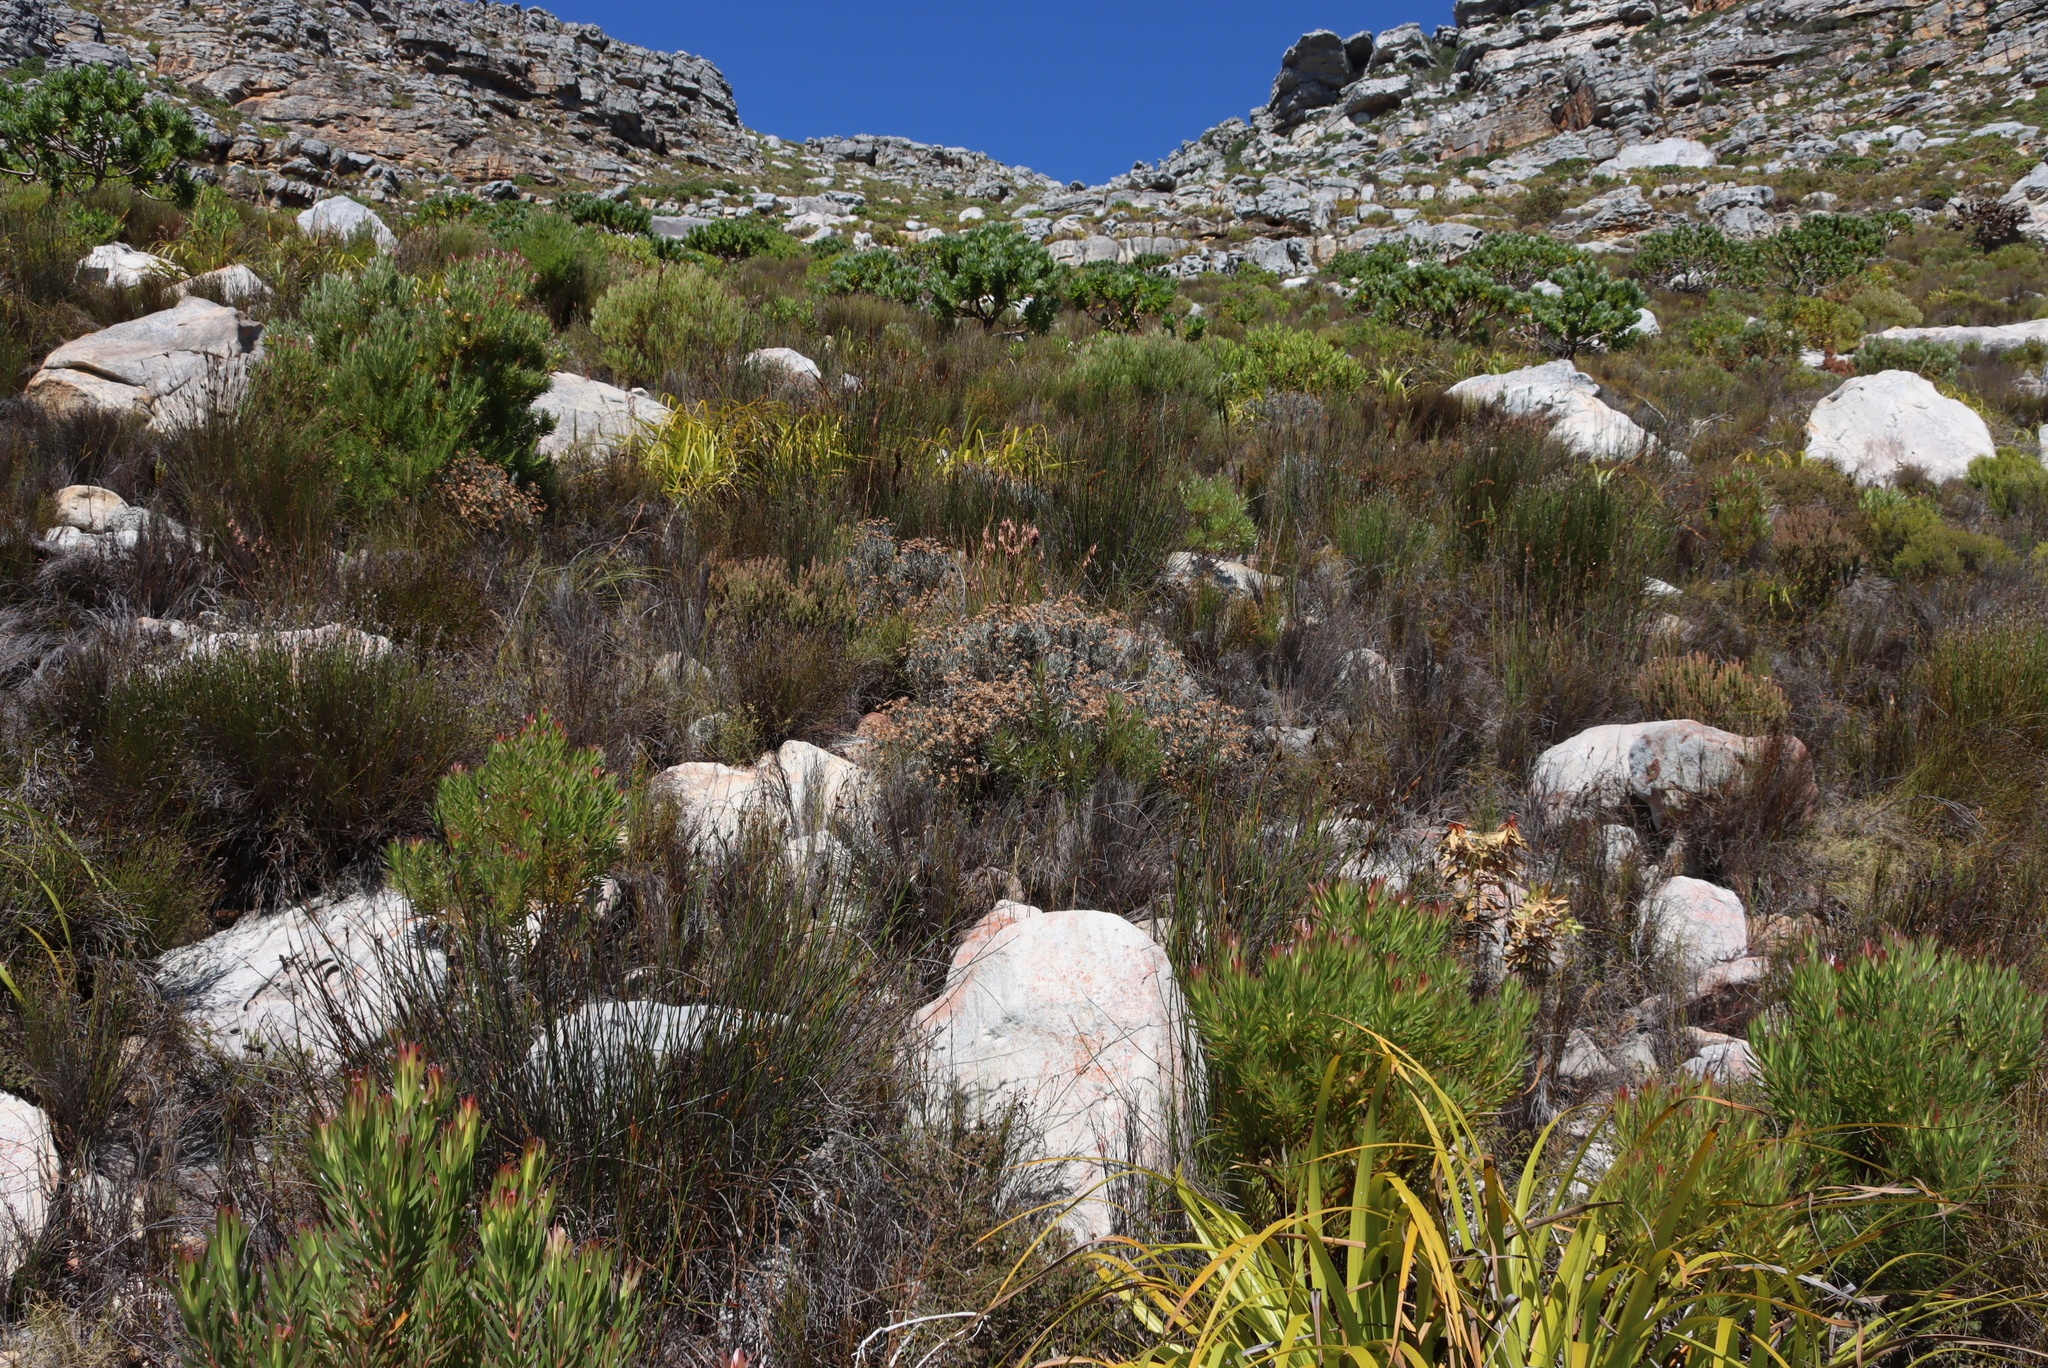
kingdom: Plantae
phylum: Tracheophyta
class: Magnoliopsida
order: Asterales
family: Asteraceae
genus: Syncarpha
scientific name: Syncarpha gnaphaloides
